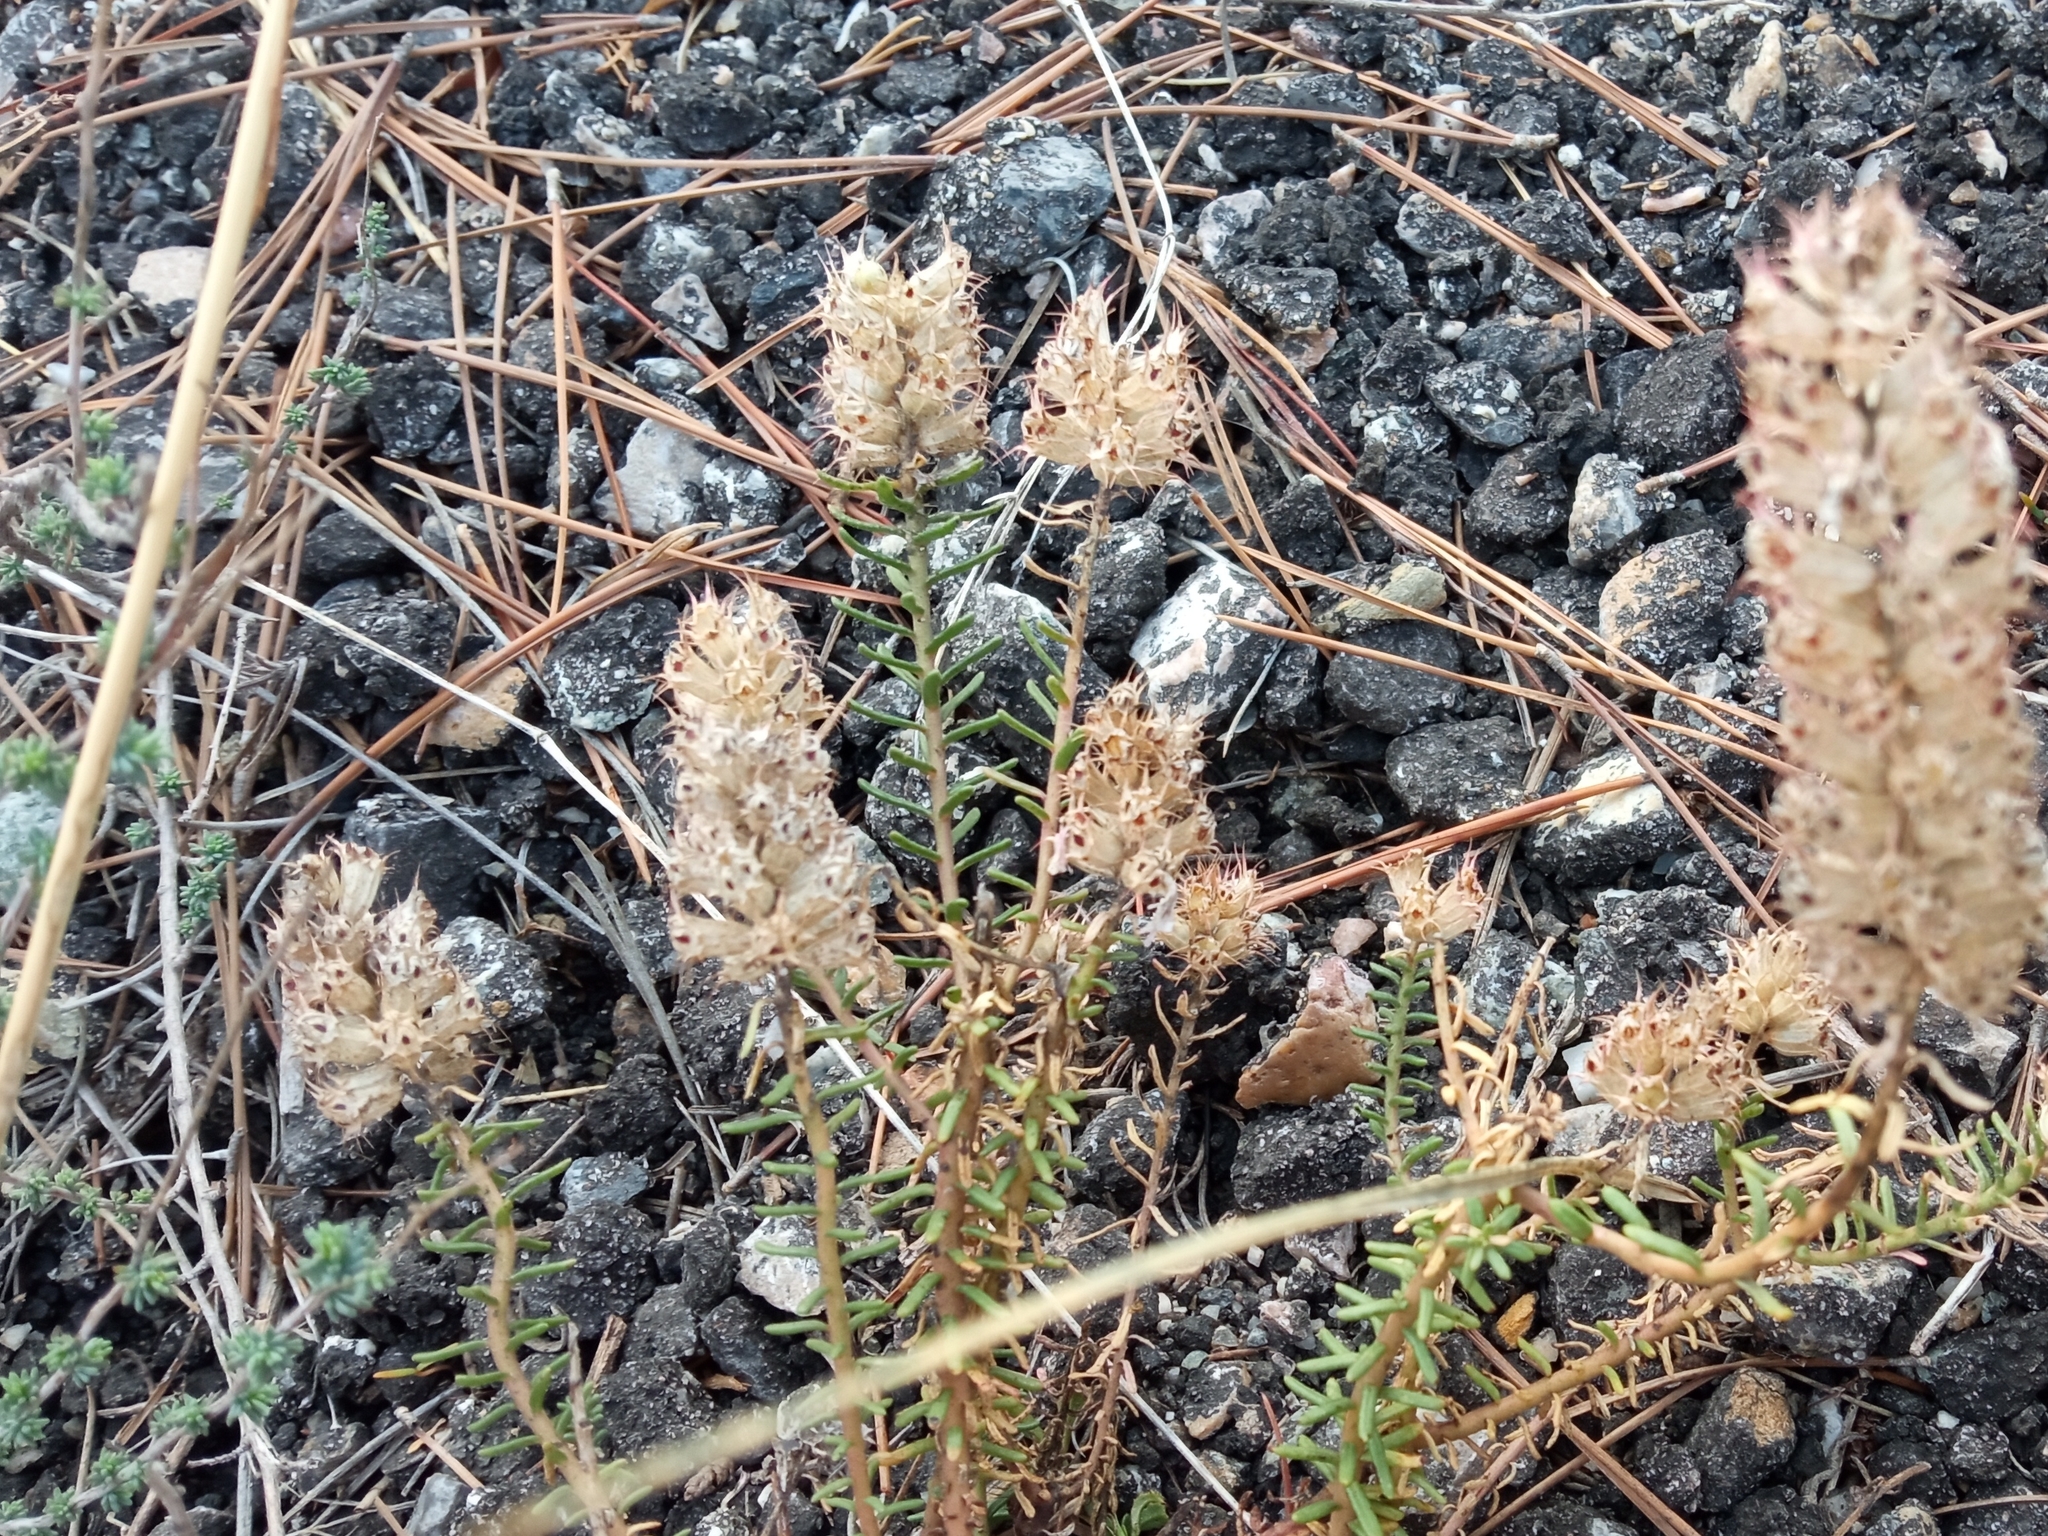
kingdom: Plantae
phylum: Tracheophyta
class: Magnoliopsida
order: Ericales
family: Primulaceae
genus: Coris
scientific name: Coris monspeliensis
